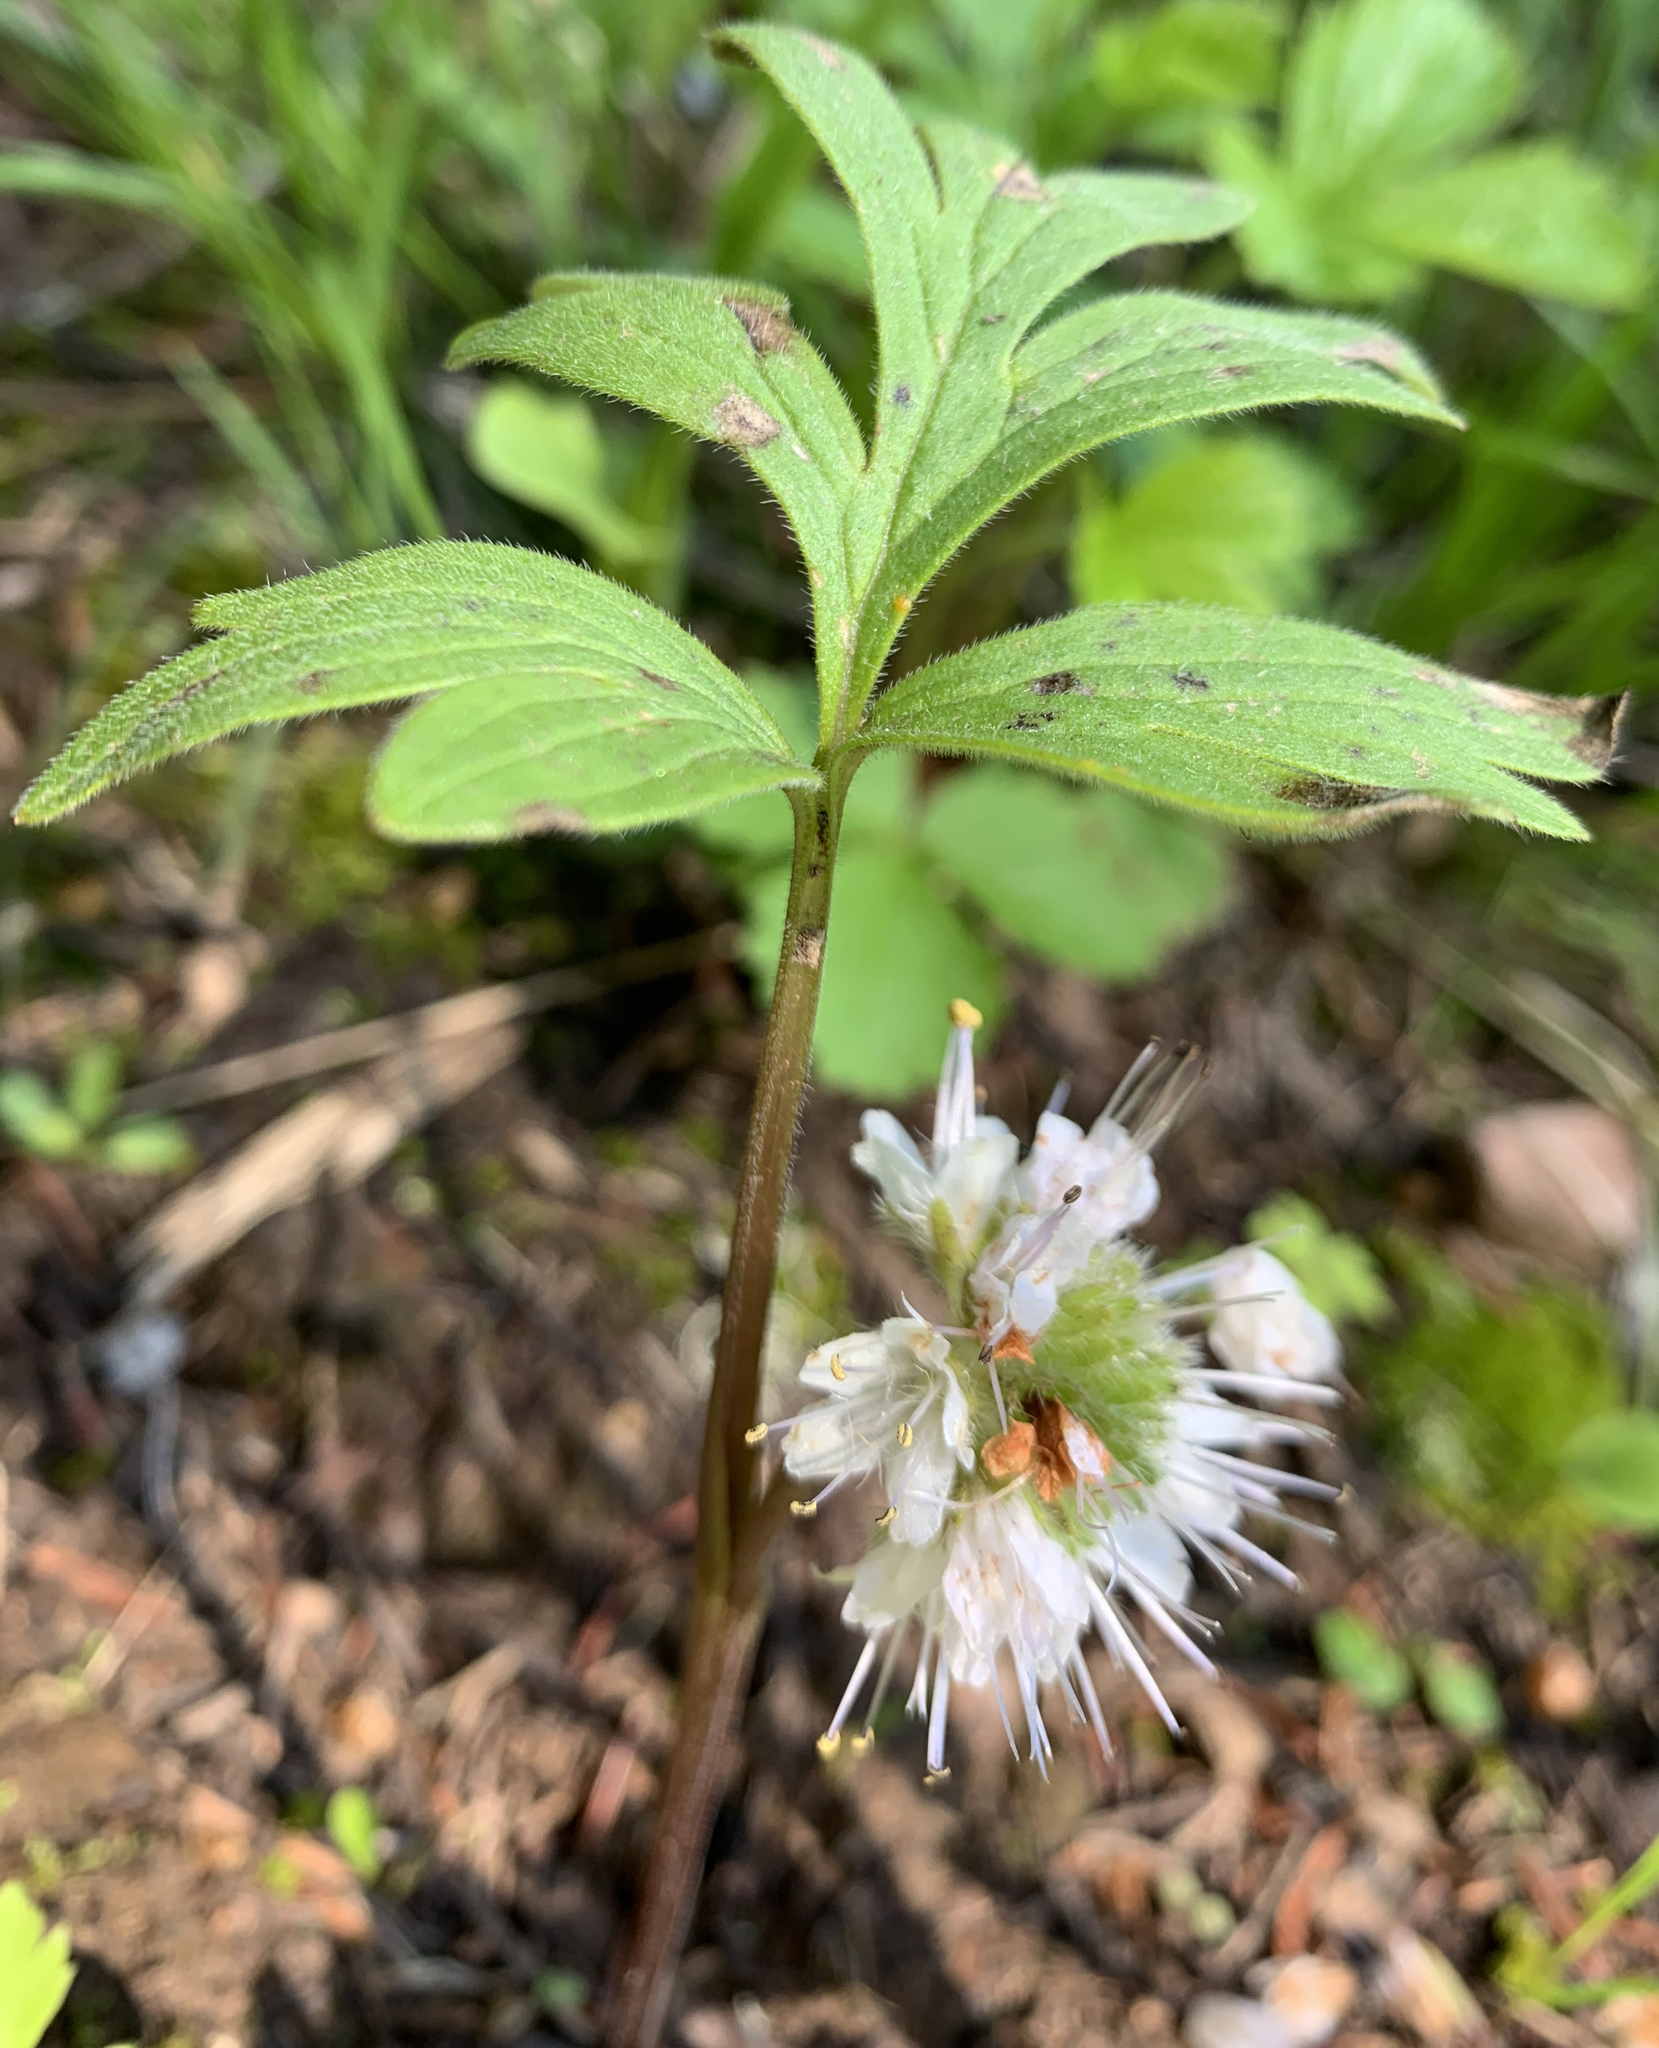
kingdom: Plantae
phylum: Tracheophyta
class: Magnoliopsida
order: Boraginales
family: Hydrophyllaceae
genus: Hydrophyllum
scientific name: Hydrophyllum capitatum
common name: Woollen-breeches
